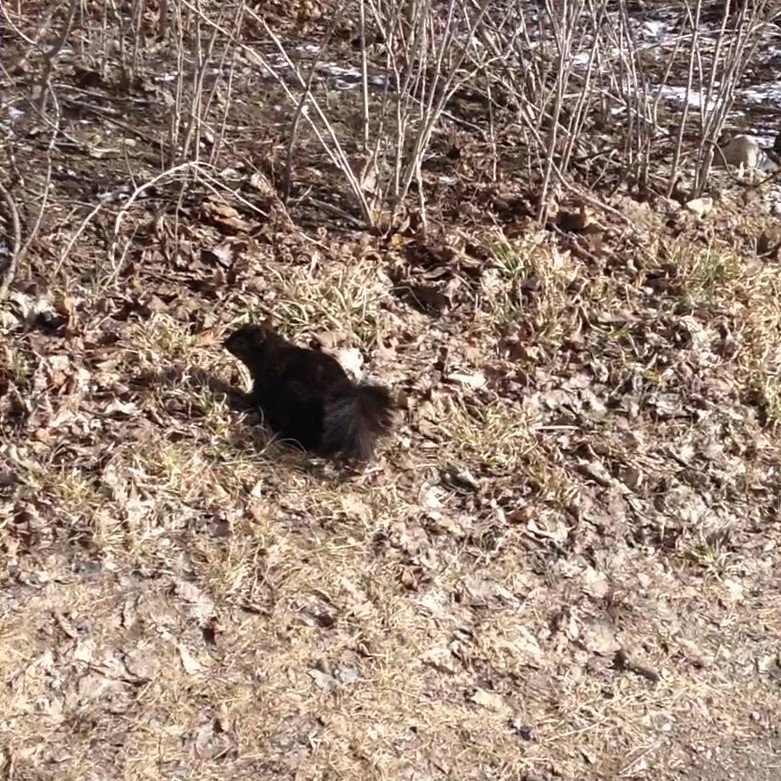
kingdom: Animalia
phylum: Chordata
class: Mammalia
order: Rodentia
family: Sciuridae
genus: Sciurus
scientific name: Sciurus carolinensis
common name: Eastern gray squirrel
